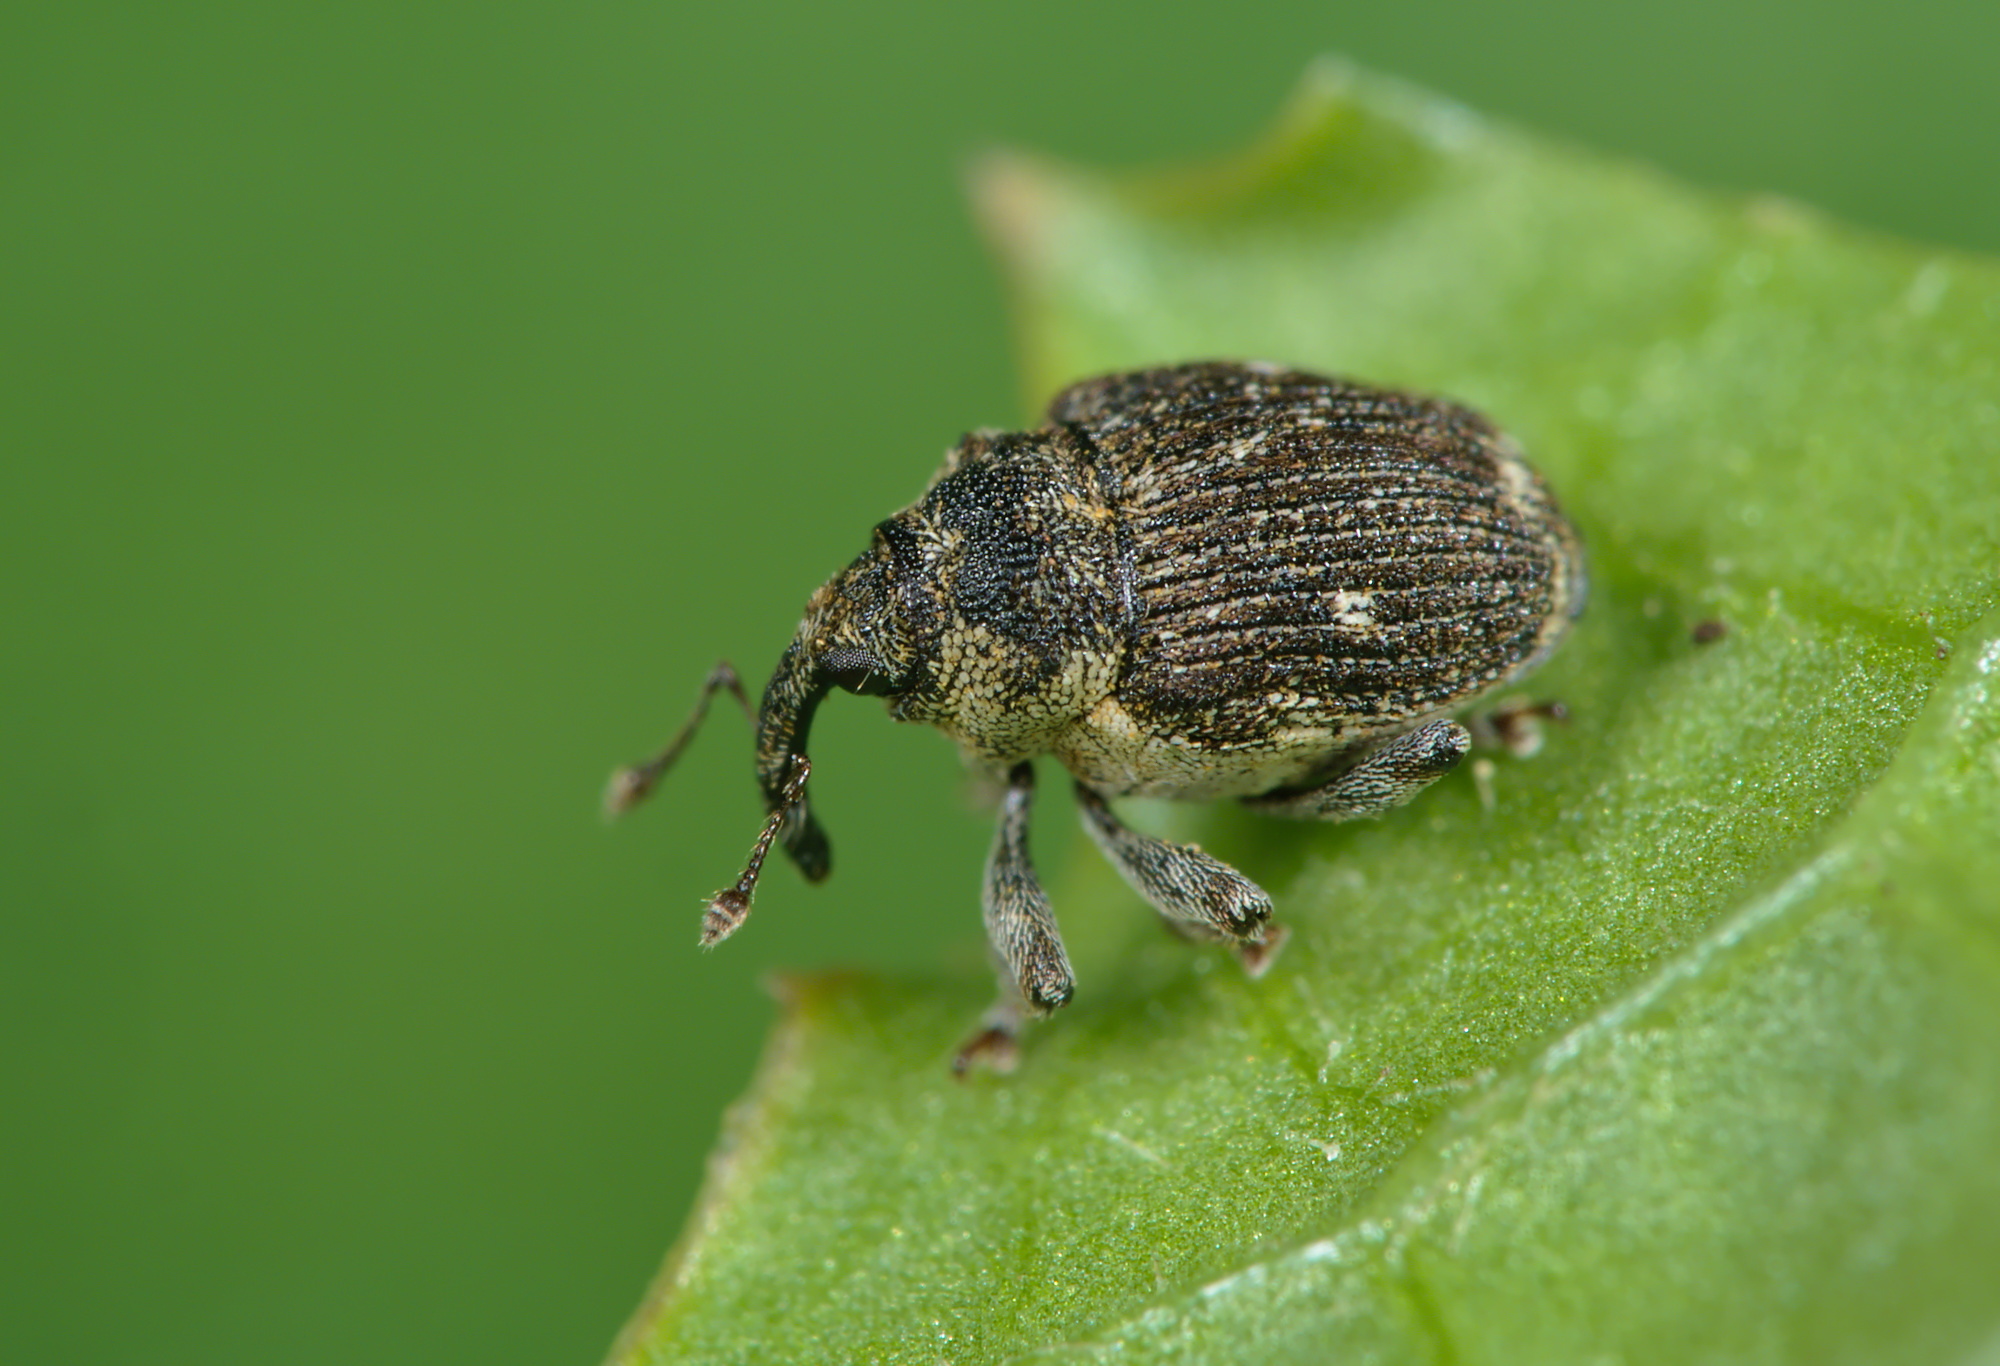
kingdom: Animalia
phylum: Arthropoda
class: Insecta
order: Coleoptera
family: Curculionidae
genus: Nedyus
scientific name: Nedyus quadrimaculatus
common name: Small nettle weevil
